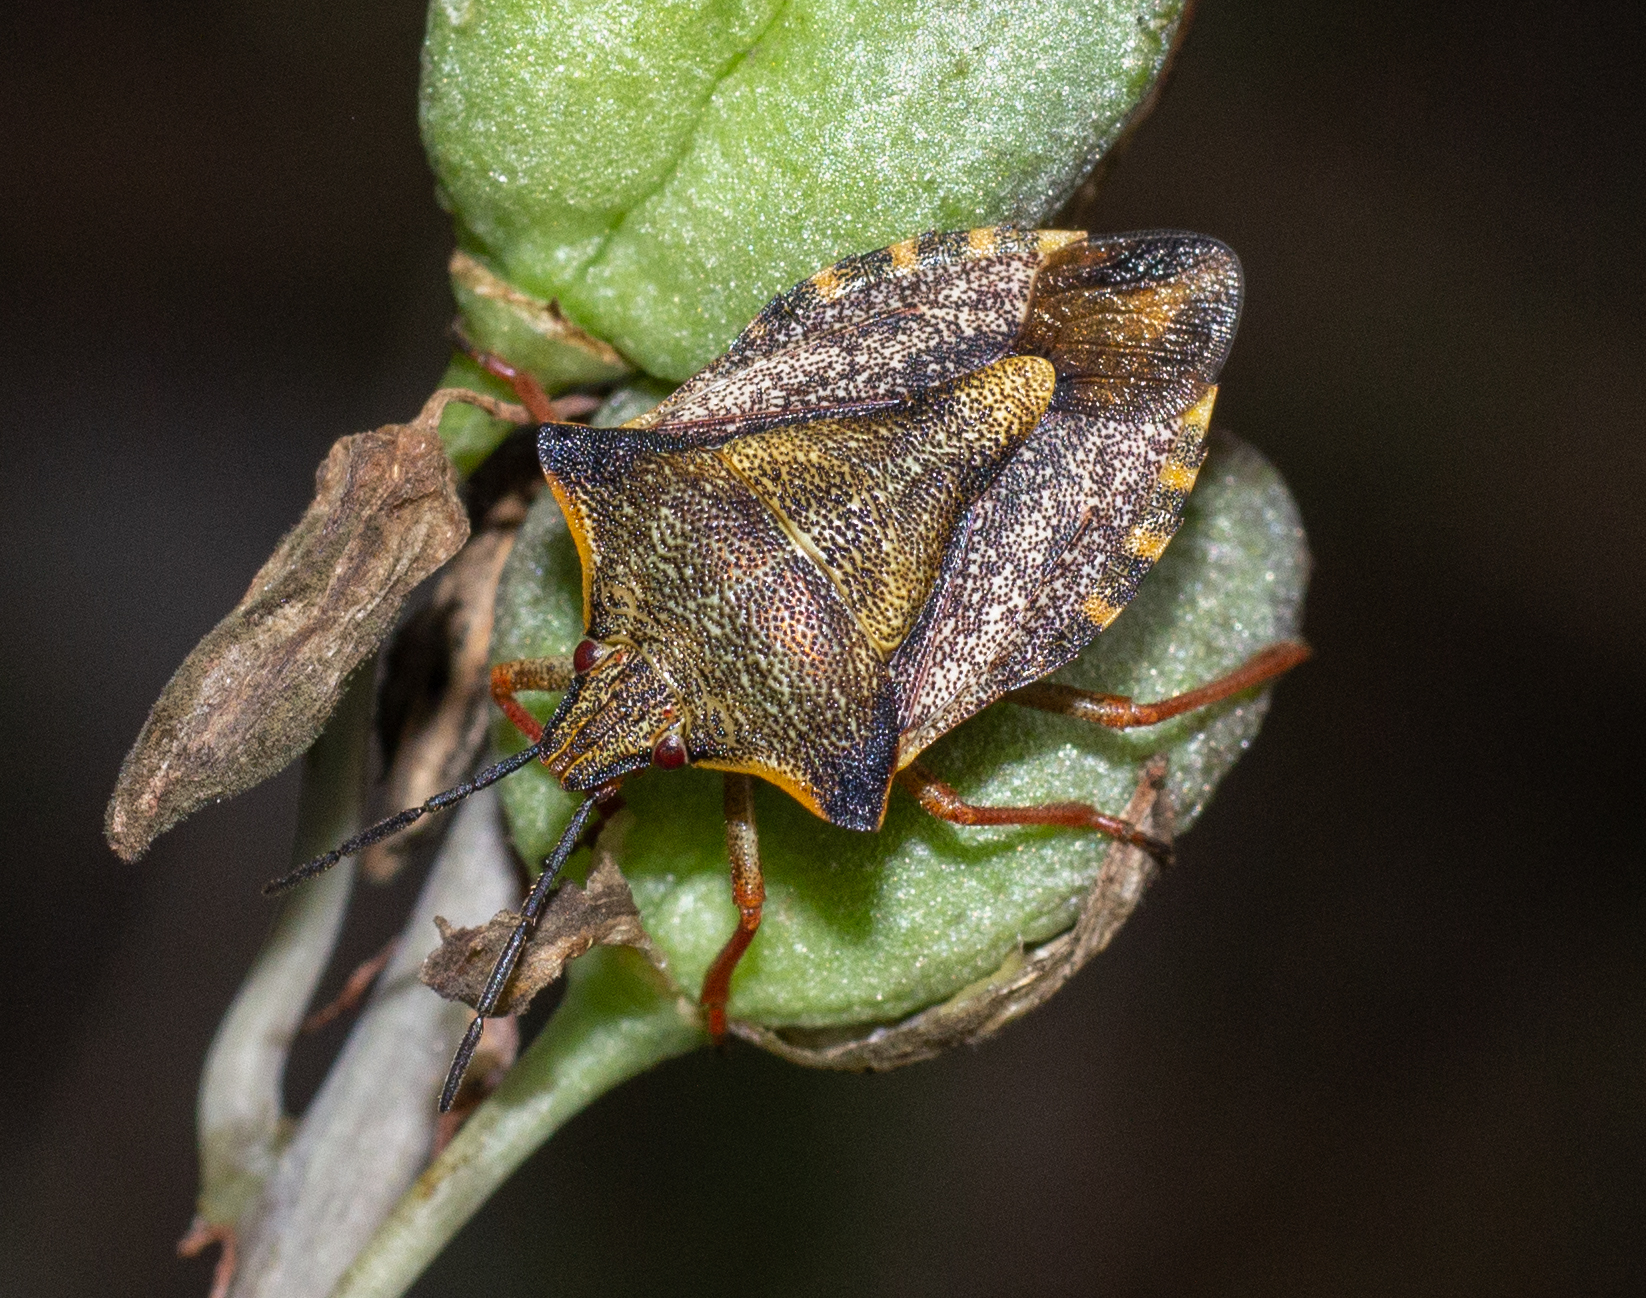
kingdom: Animalia
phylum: Arthropoda
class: Insecta
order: Hemiptera
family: Pentatomidae
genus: Carpocoris
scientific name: Carpocoris mediterraneus
